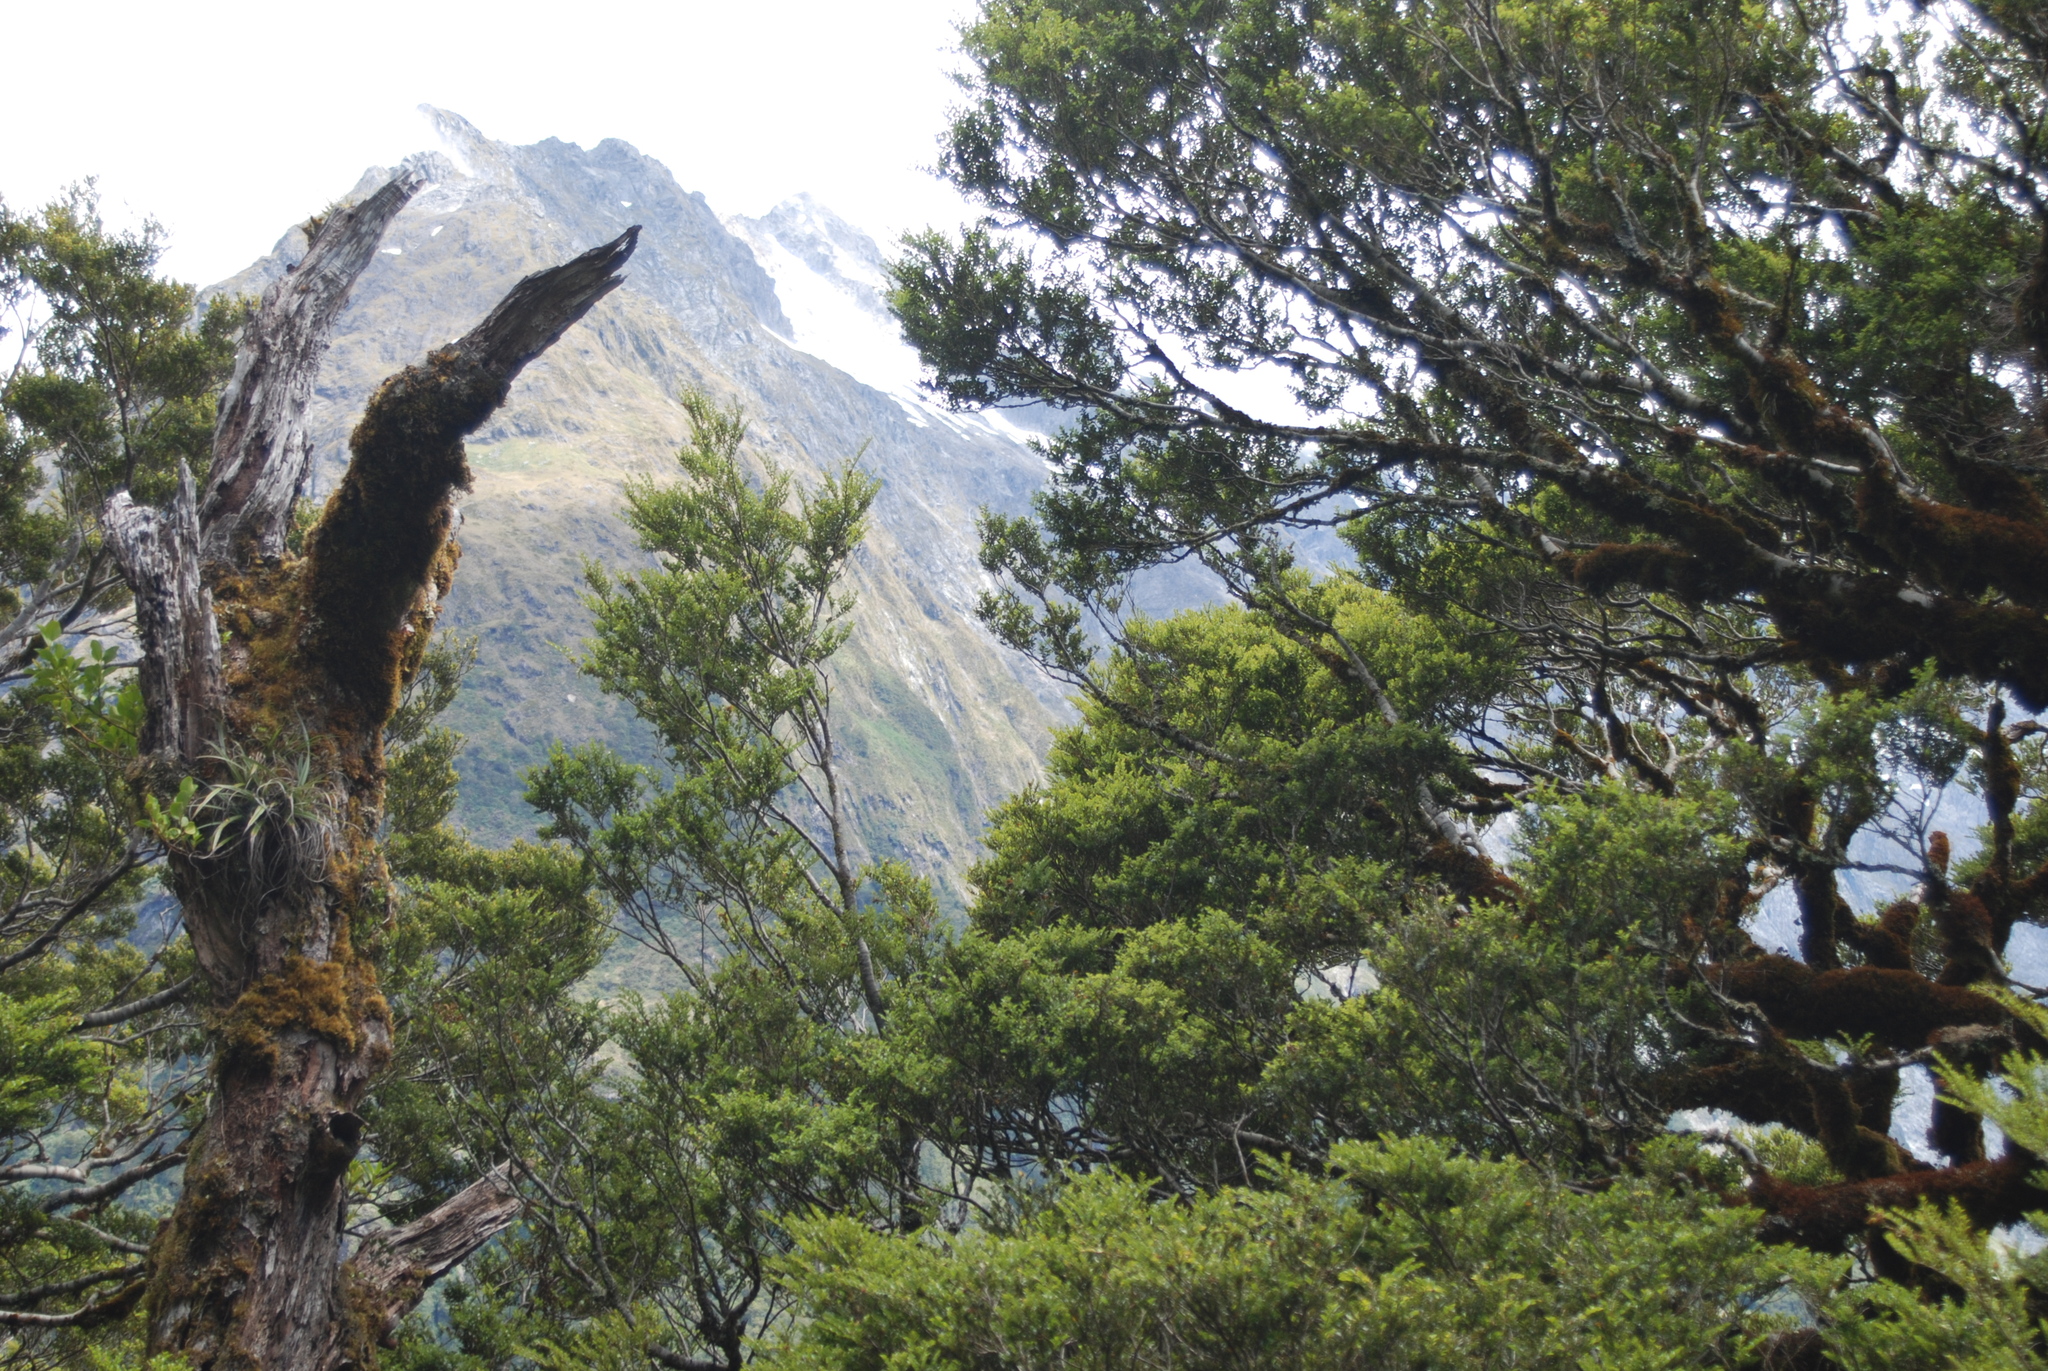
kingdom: Plantae
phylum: Tracheophyta
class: Magnoliopsida
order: Fagales
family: Nothofagaceae
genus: Nothofagus
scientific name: Nothofagus menziesii
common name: Silver beech
